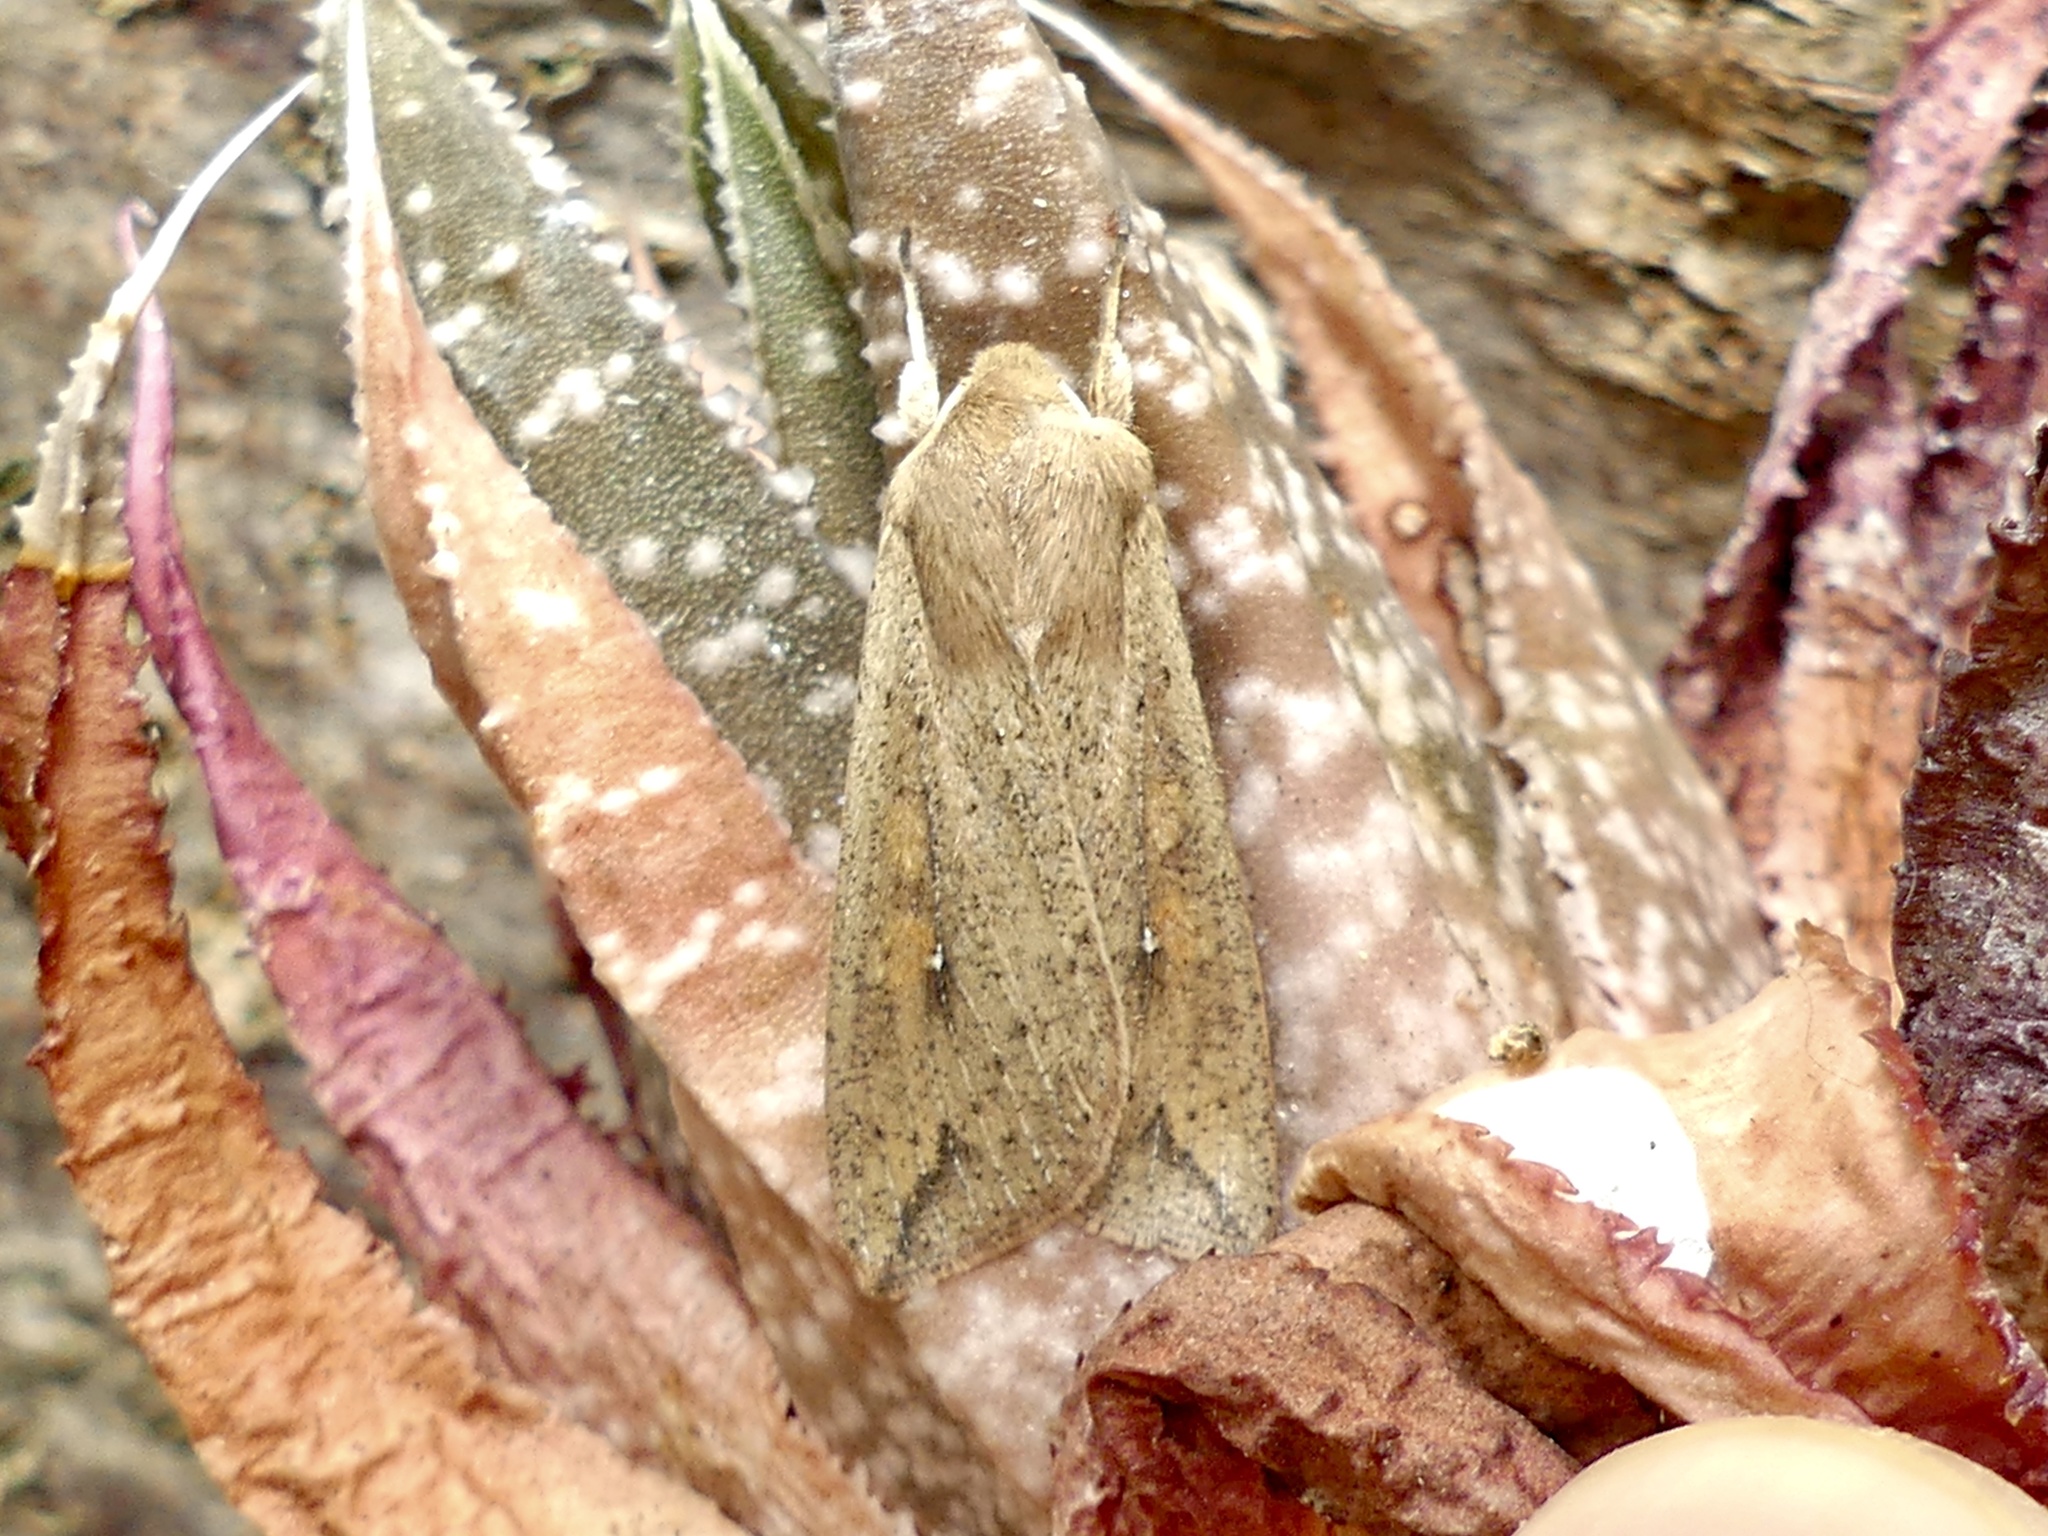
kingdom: Animalia
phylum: Arthropoda
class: Insecta
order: Lepidoptera
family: Noctuidae
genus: Mythimna
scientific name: Mythimna unipuncta
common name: White-speck
